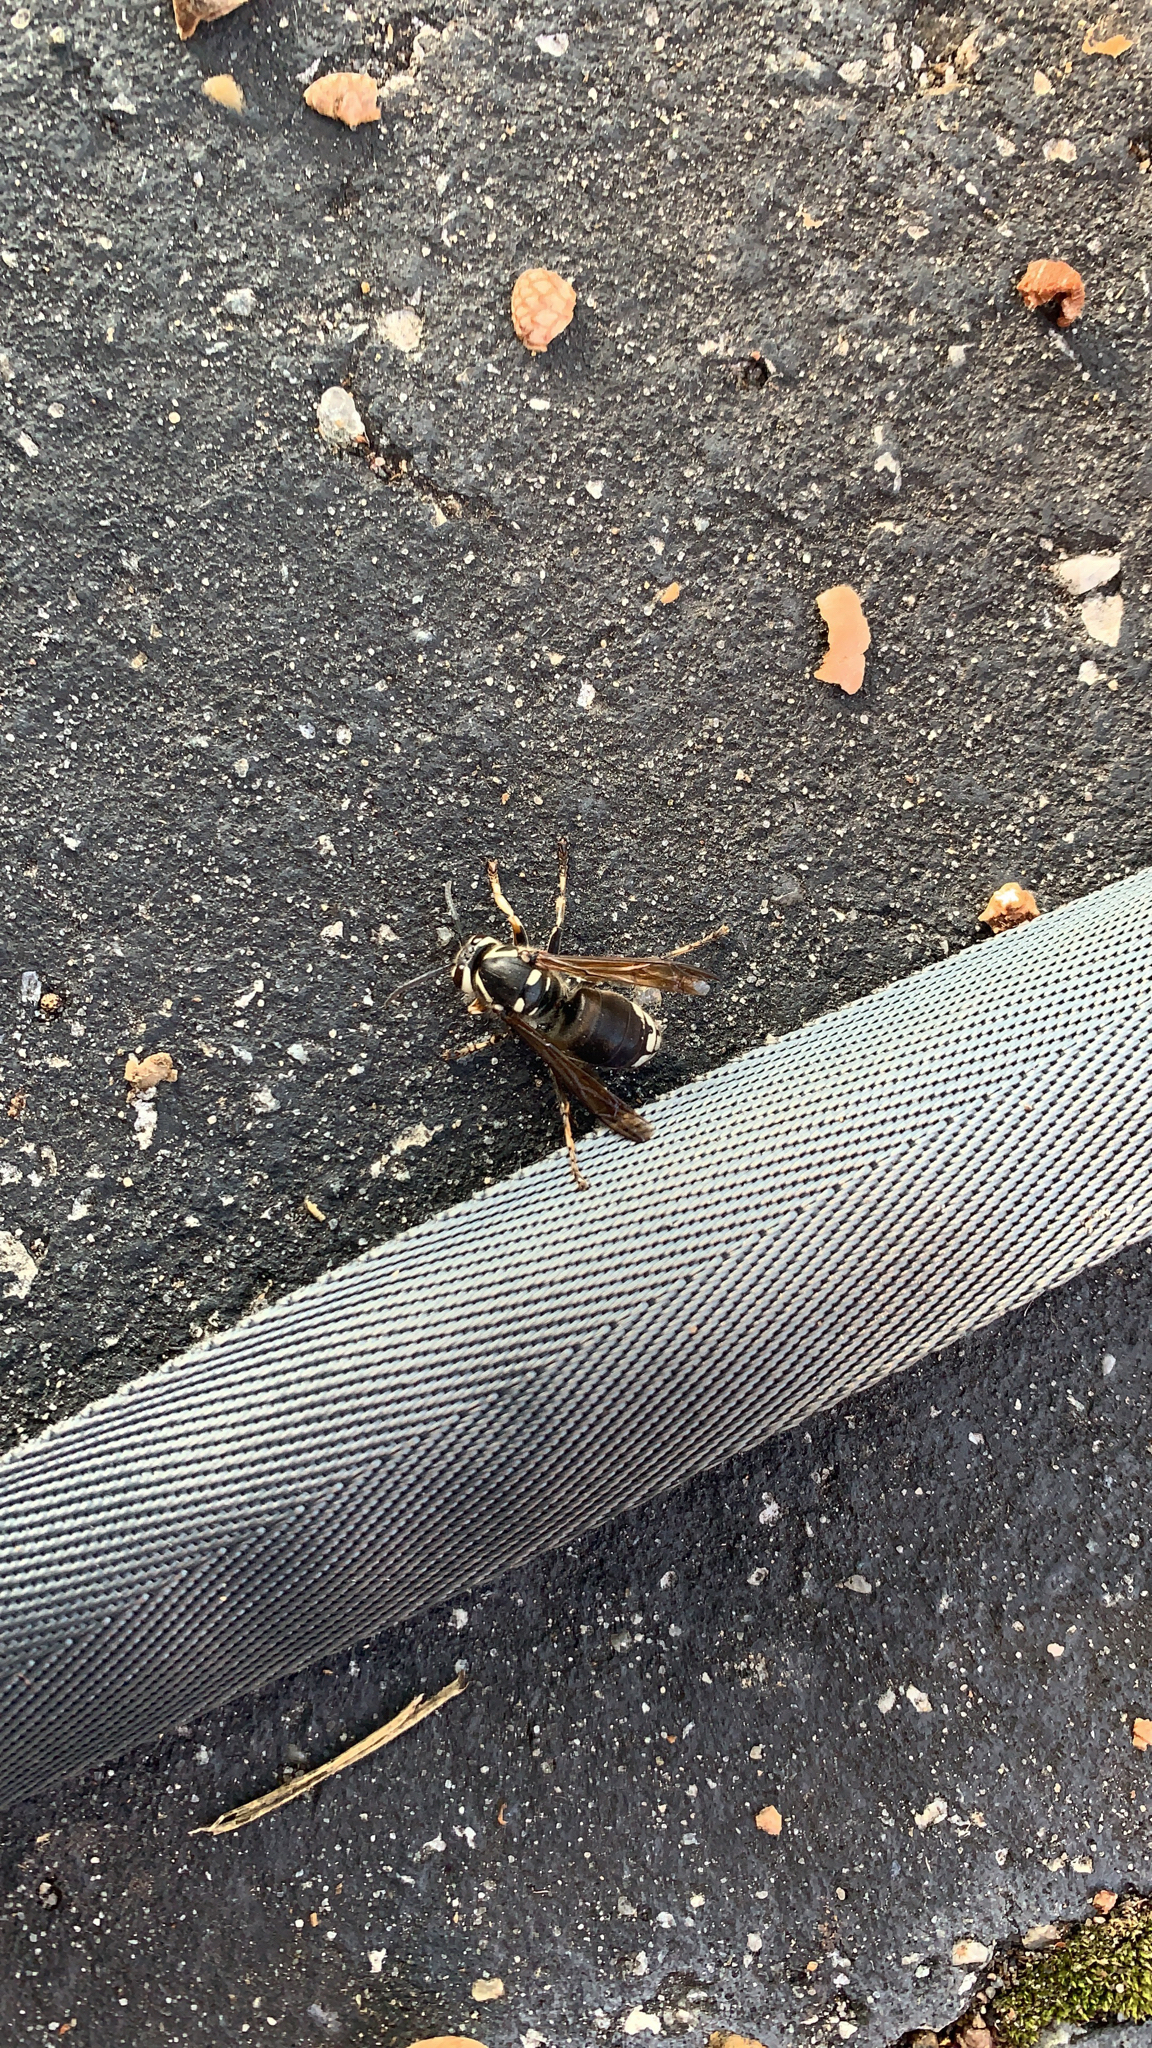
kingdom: Animalia
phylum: Arthropoda
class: Insecta
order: Hymenoptera
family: Vespidae
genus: Dolichovespula
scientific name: Dolichovespula maculata
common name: Bald-faced hornet
